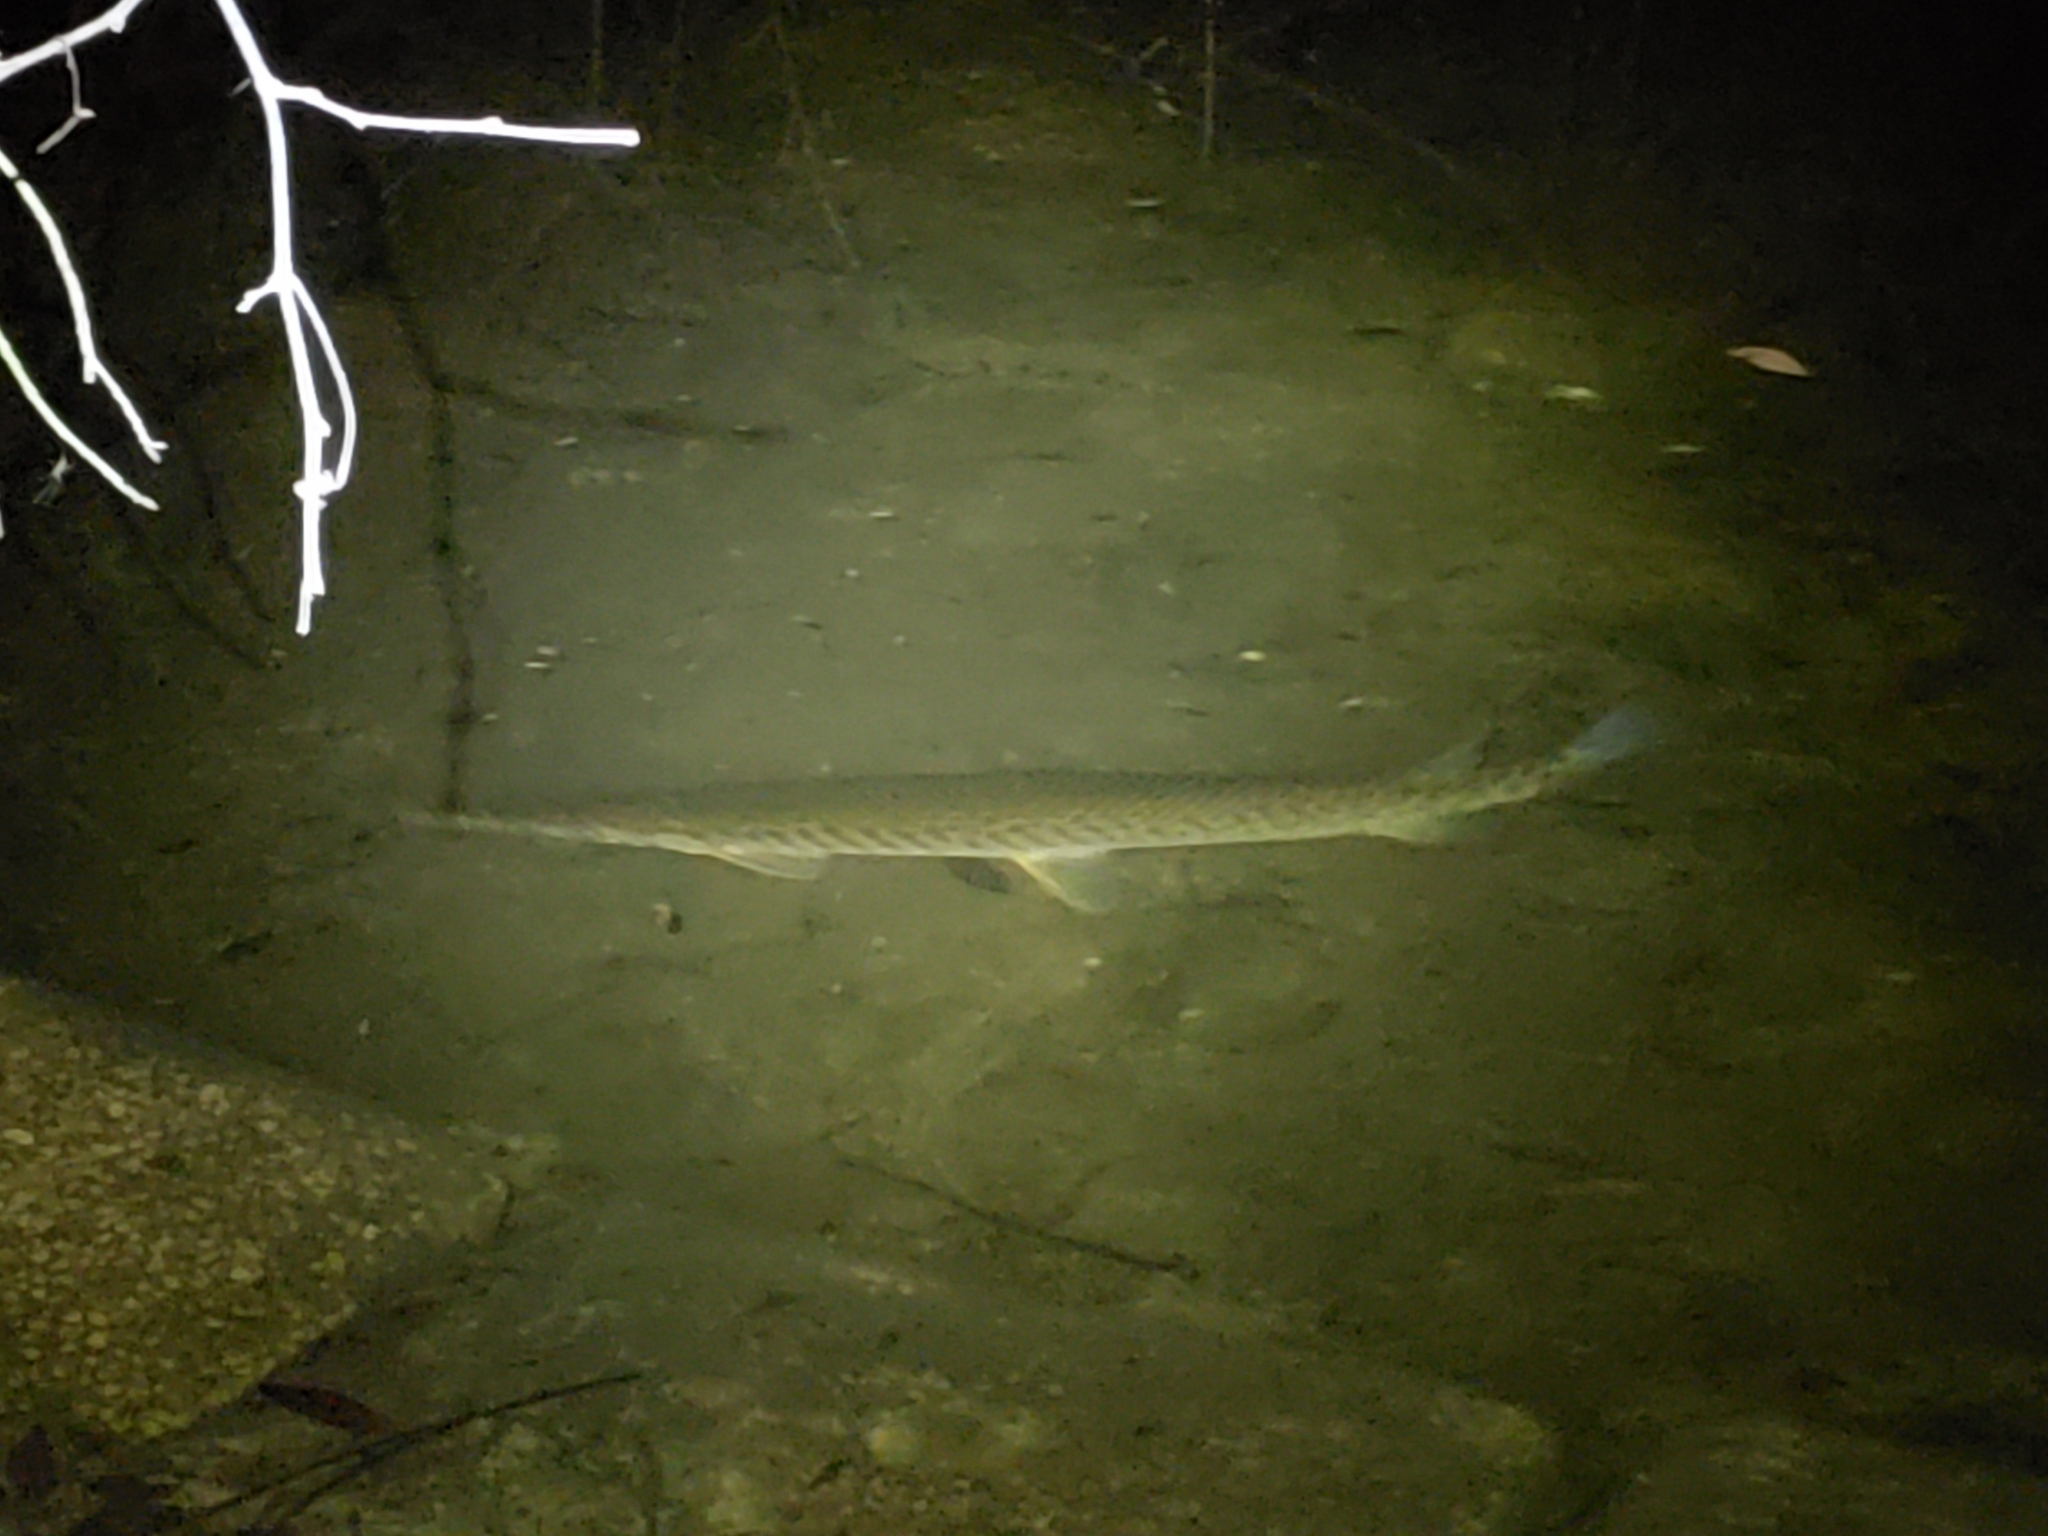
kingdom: Animalia
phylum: Chordata
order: Lepisosteiformes
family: Lepisosteidae
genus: Lepisosteus
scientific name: Lepisosteus platyrhincus
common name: Florida gar
